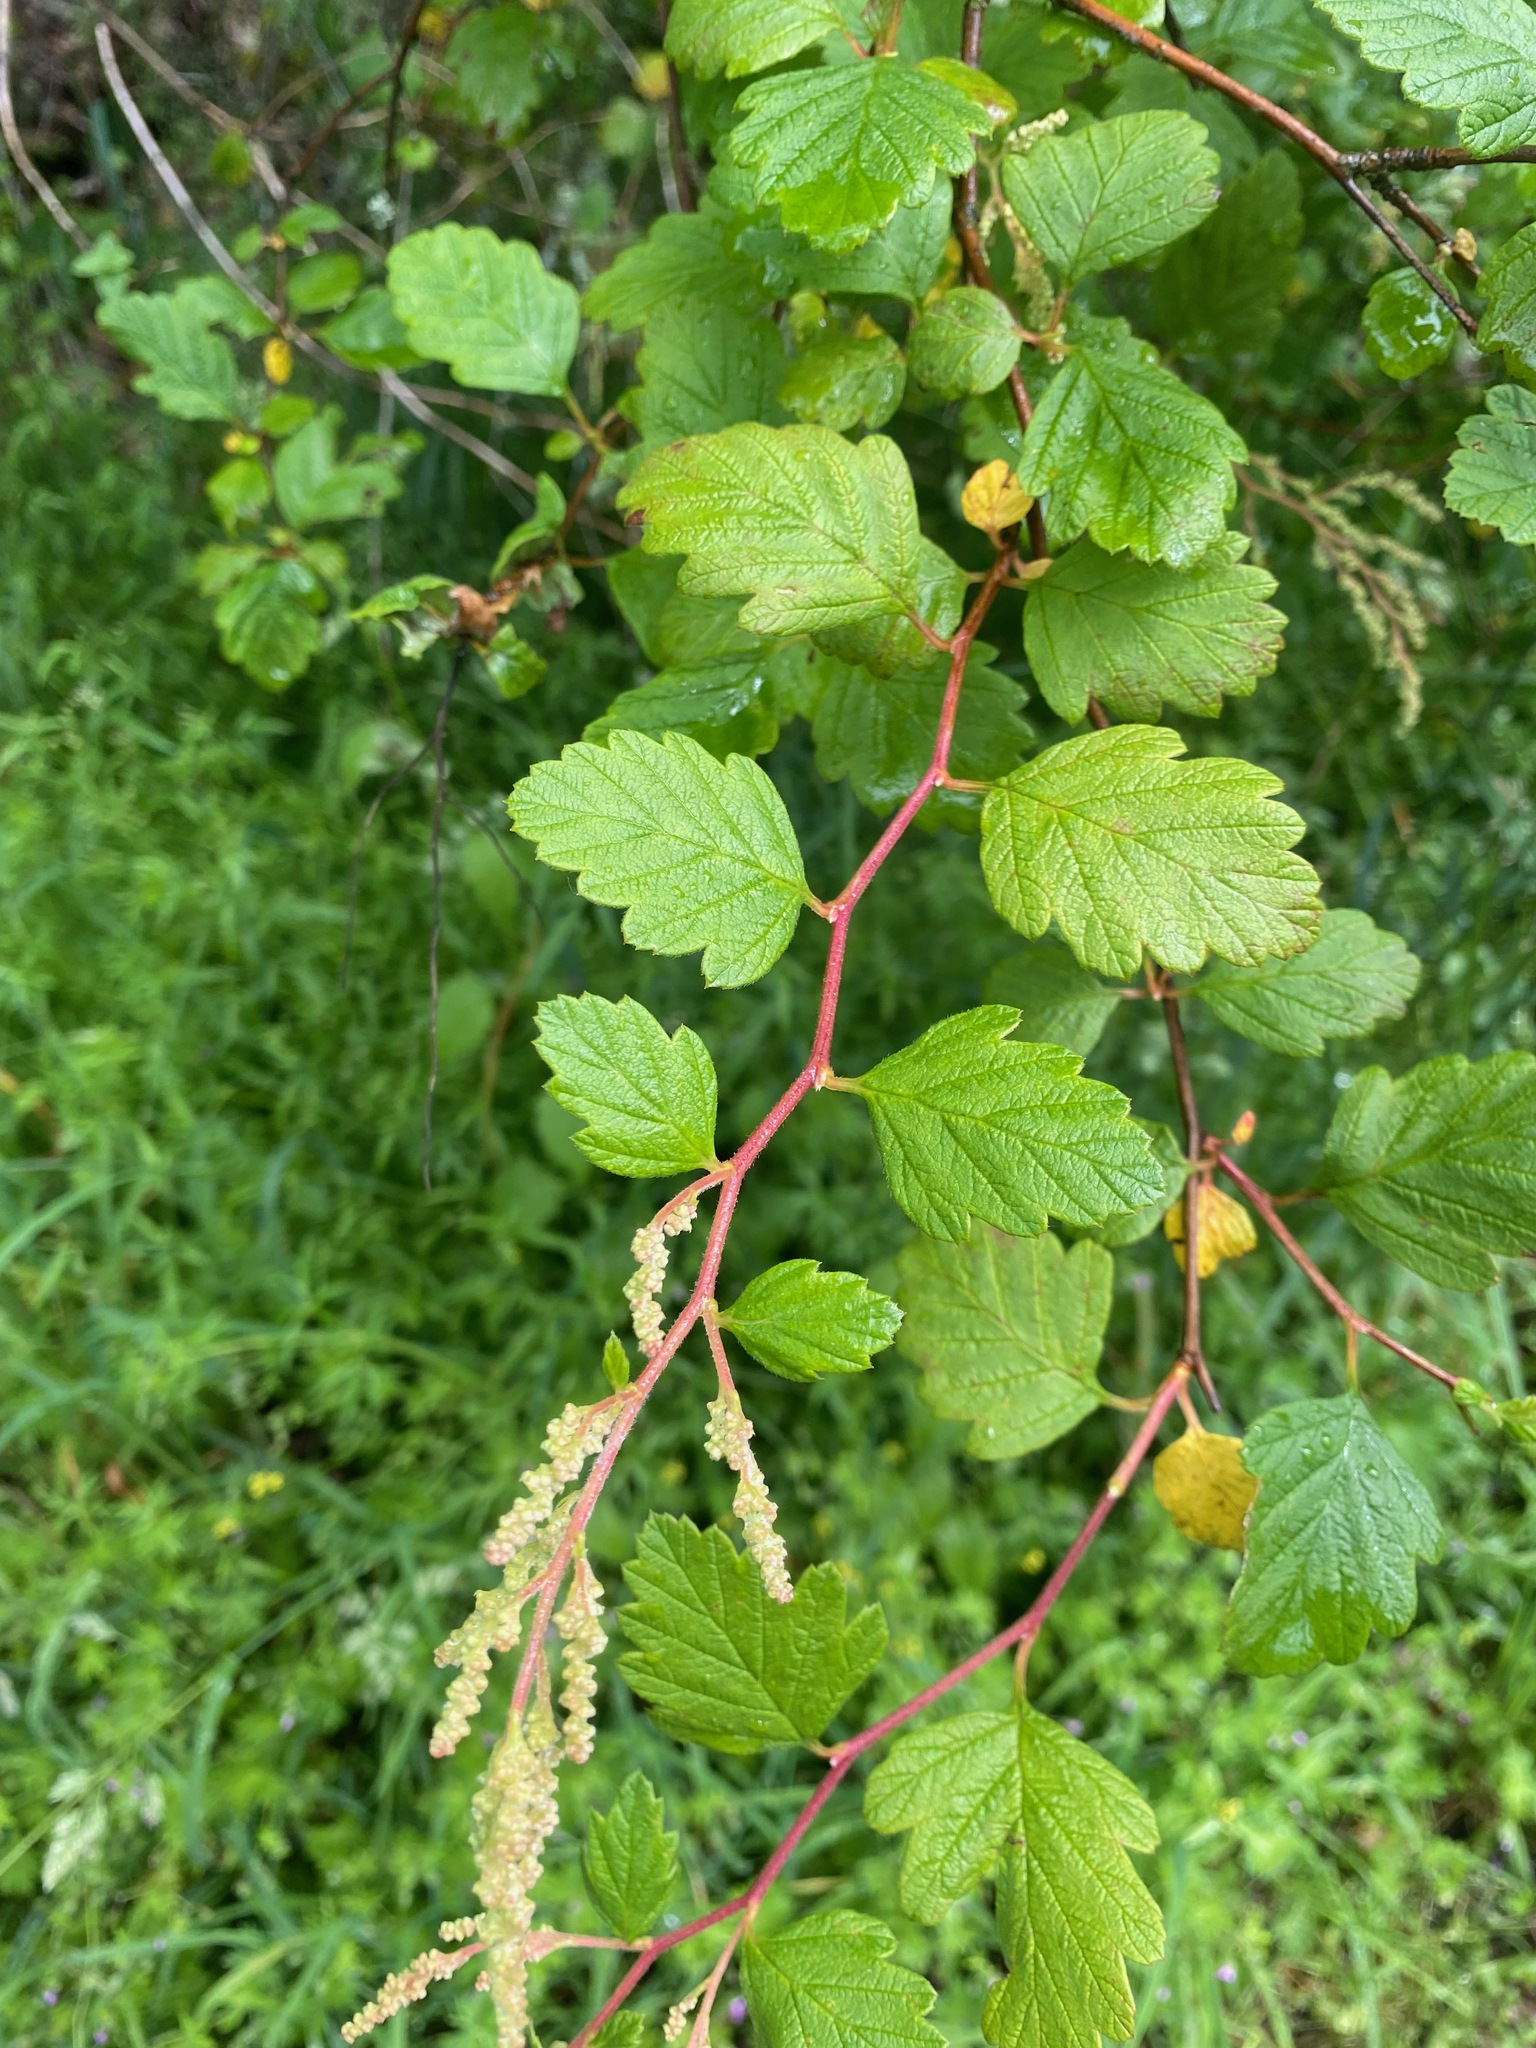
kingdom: Plantae
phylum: Tracheophyta
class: Magnoliopsida
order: Rosales
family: Rosaceae
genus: Holodiscus
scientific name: Holodiscus discolor
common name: Oceanspray
